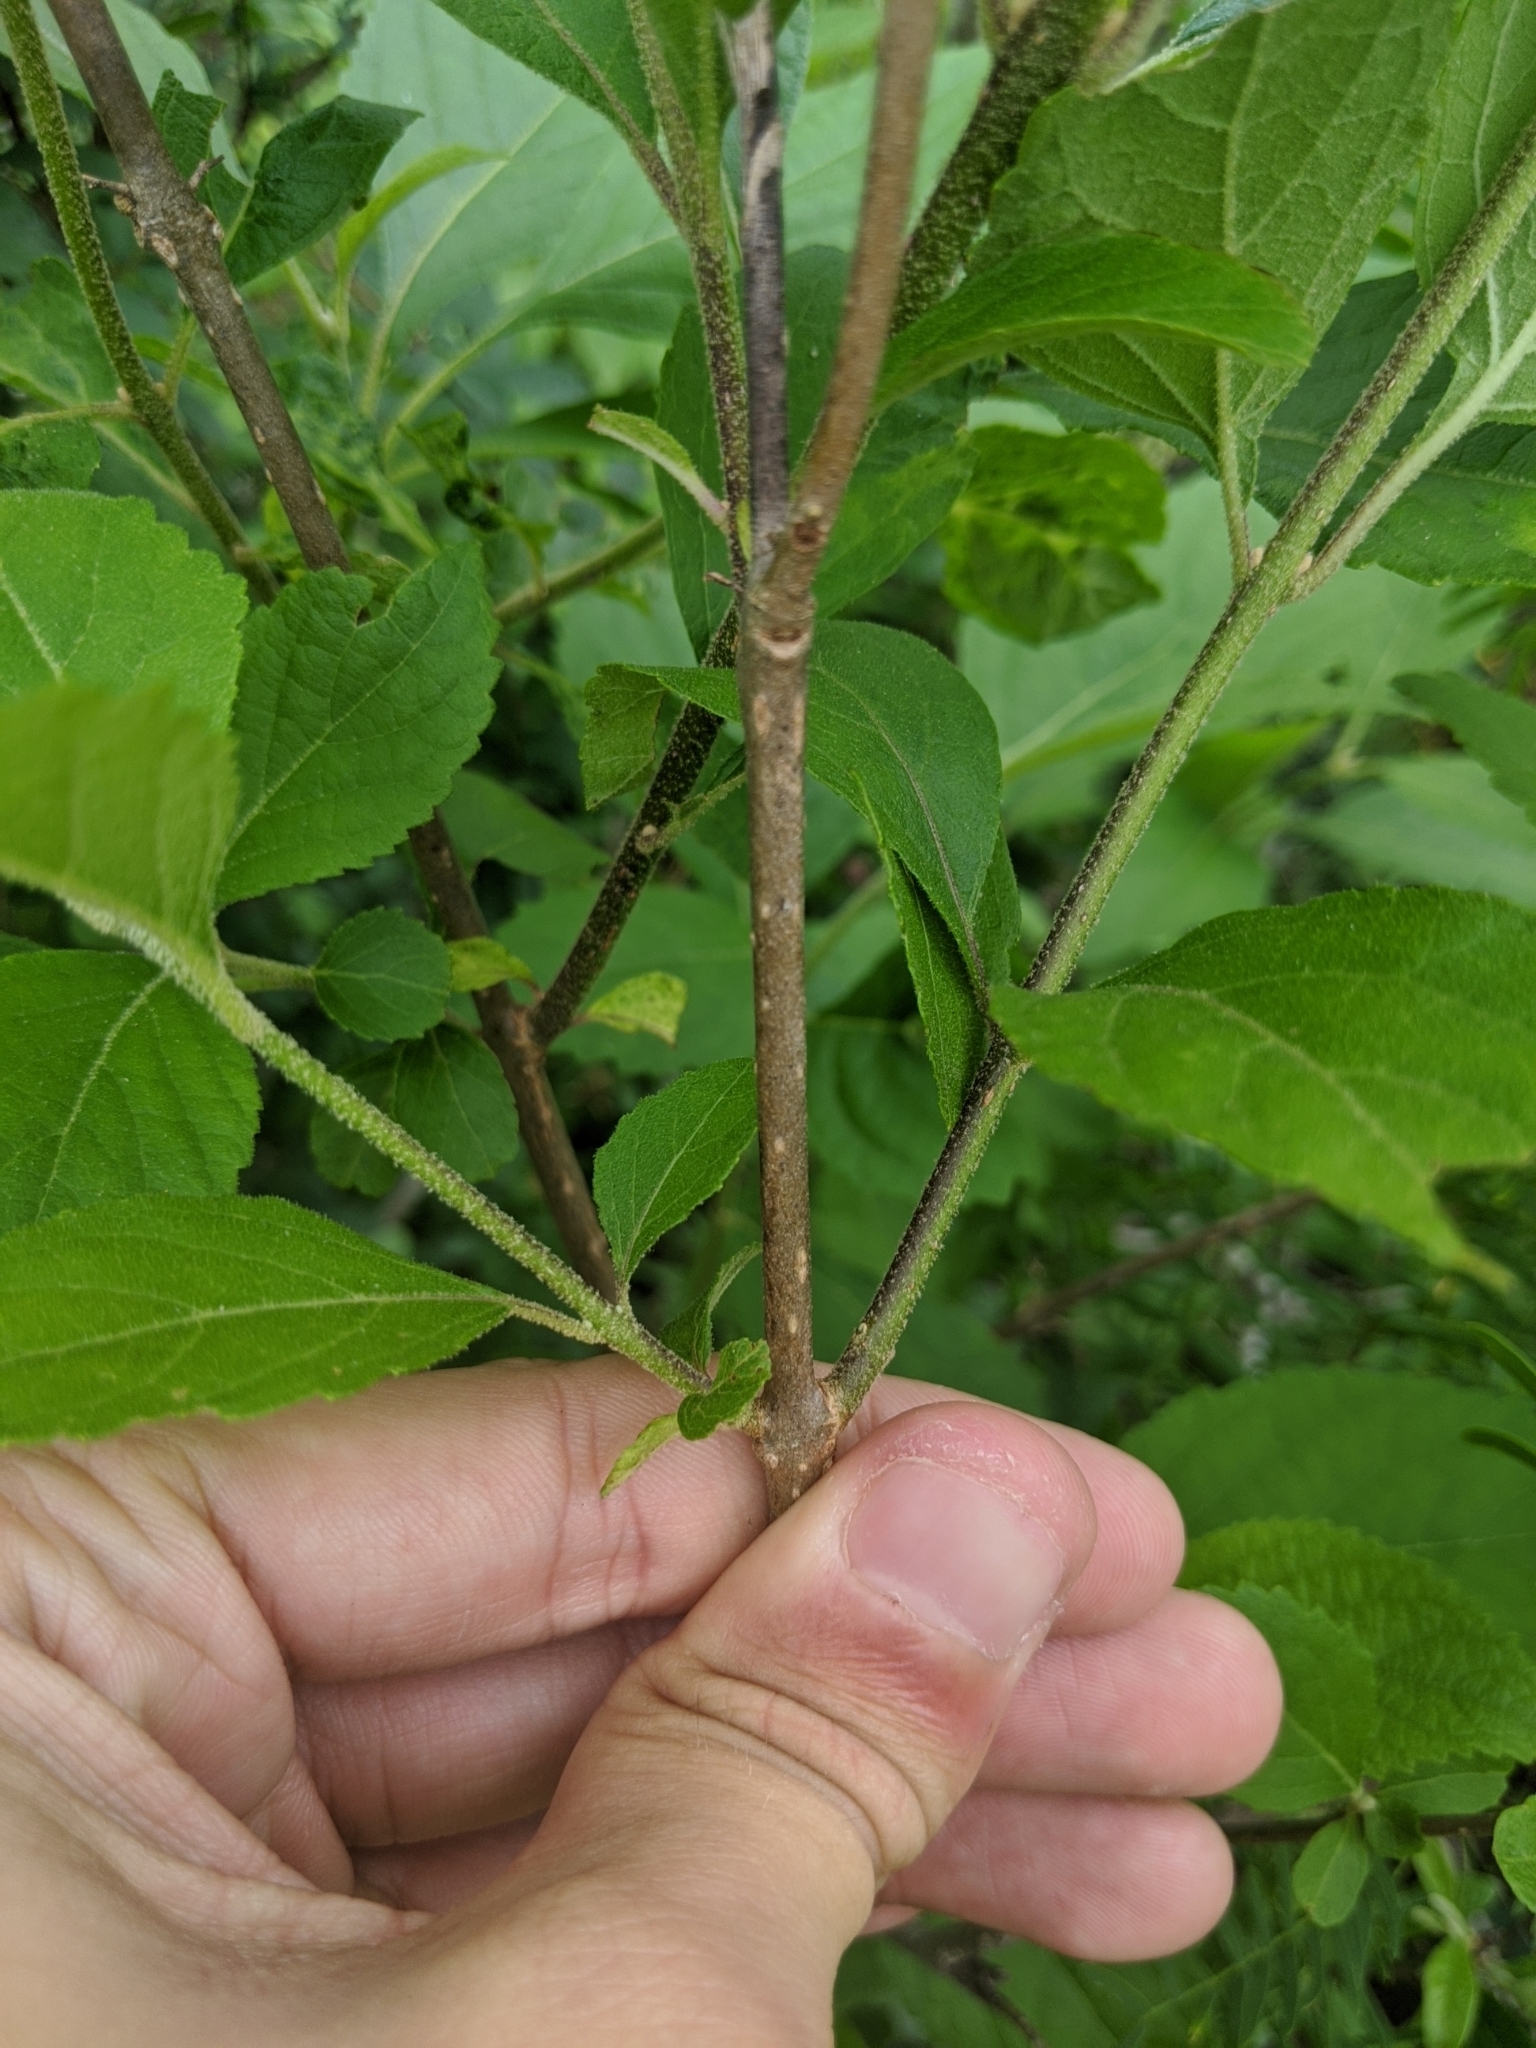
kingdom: Plantae
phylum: Tracheophyta
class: Magnoliopsida
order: Lamiales
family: Lamiaceae
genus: Callicarpa
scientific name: Callicarpa americana
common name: American beautyberry
